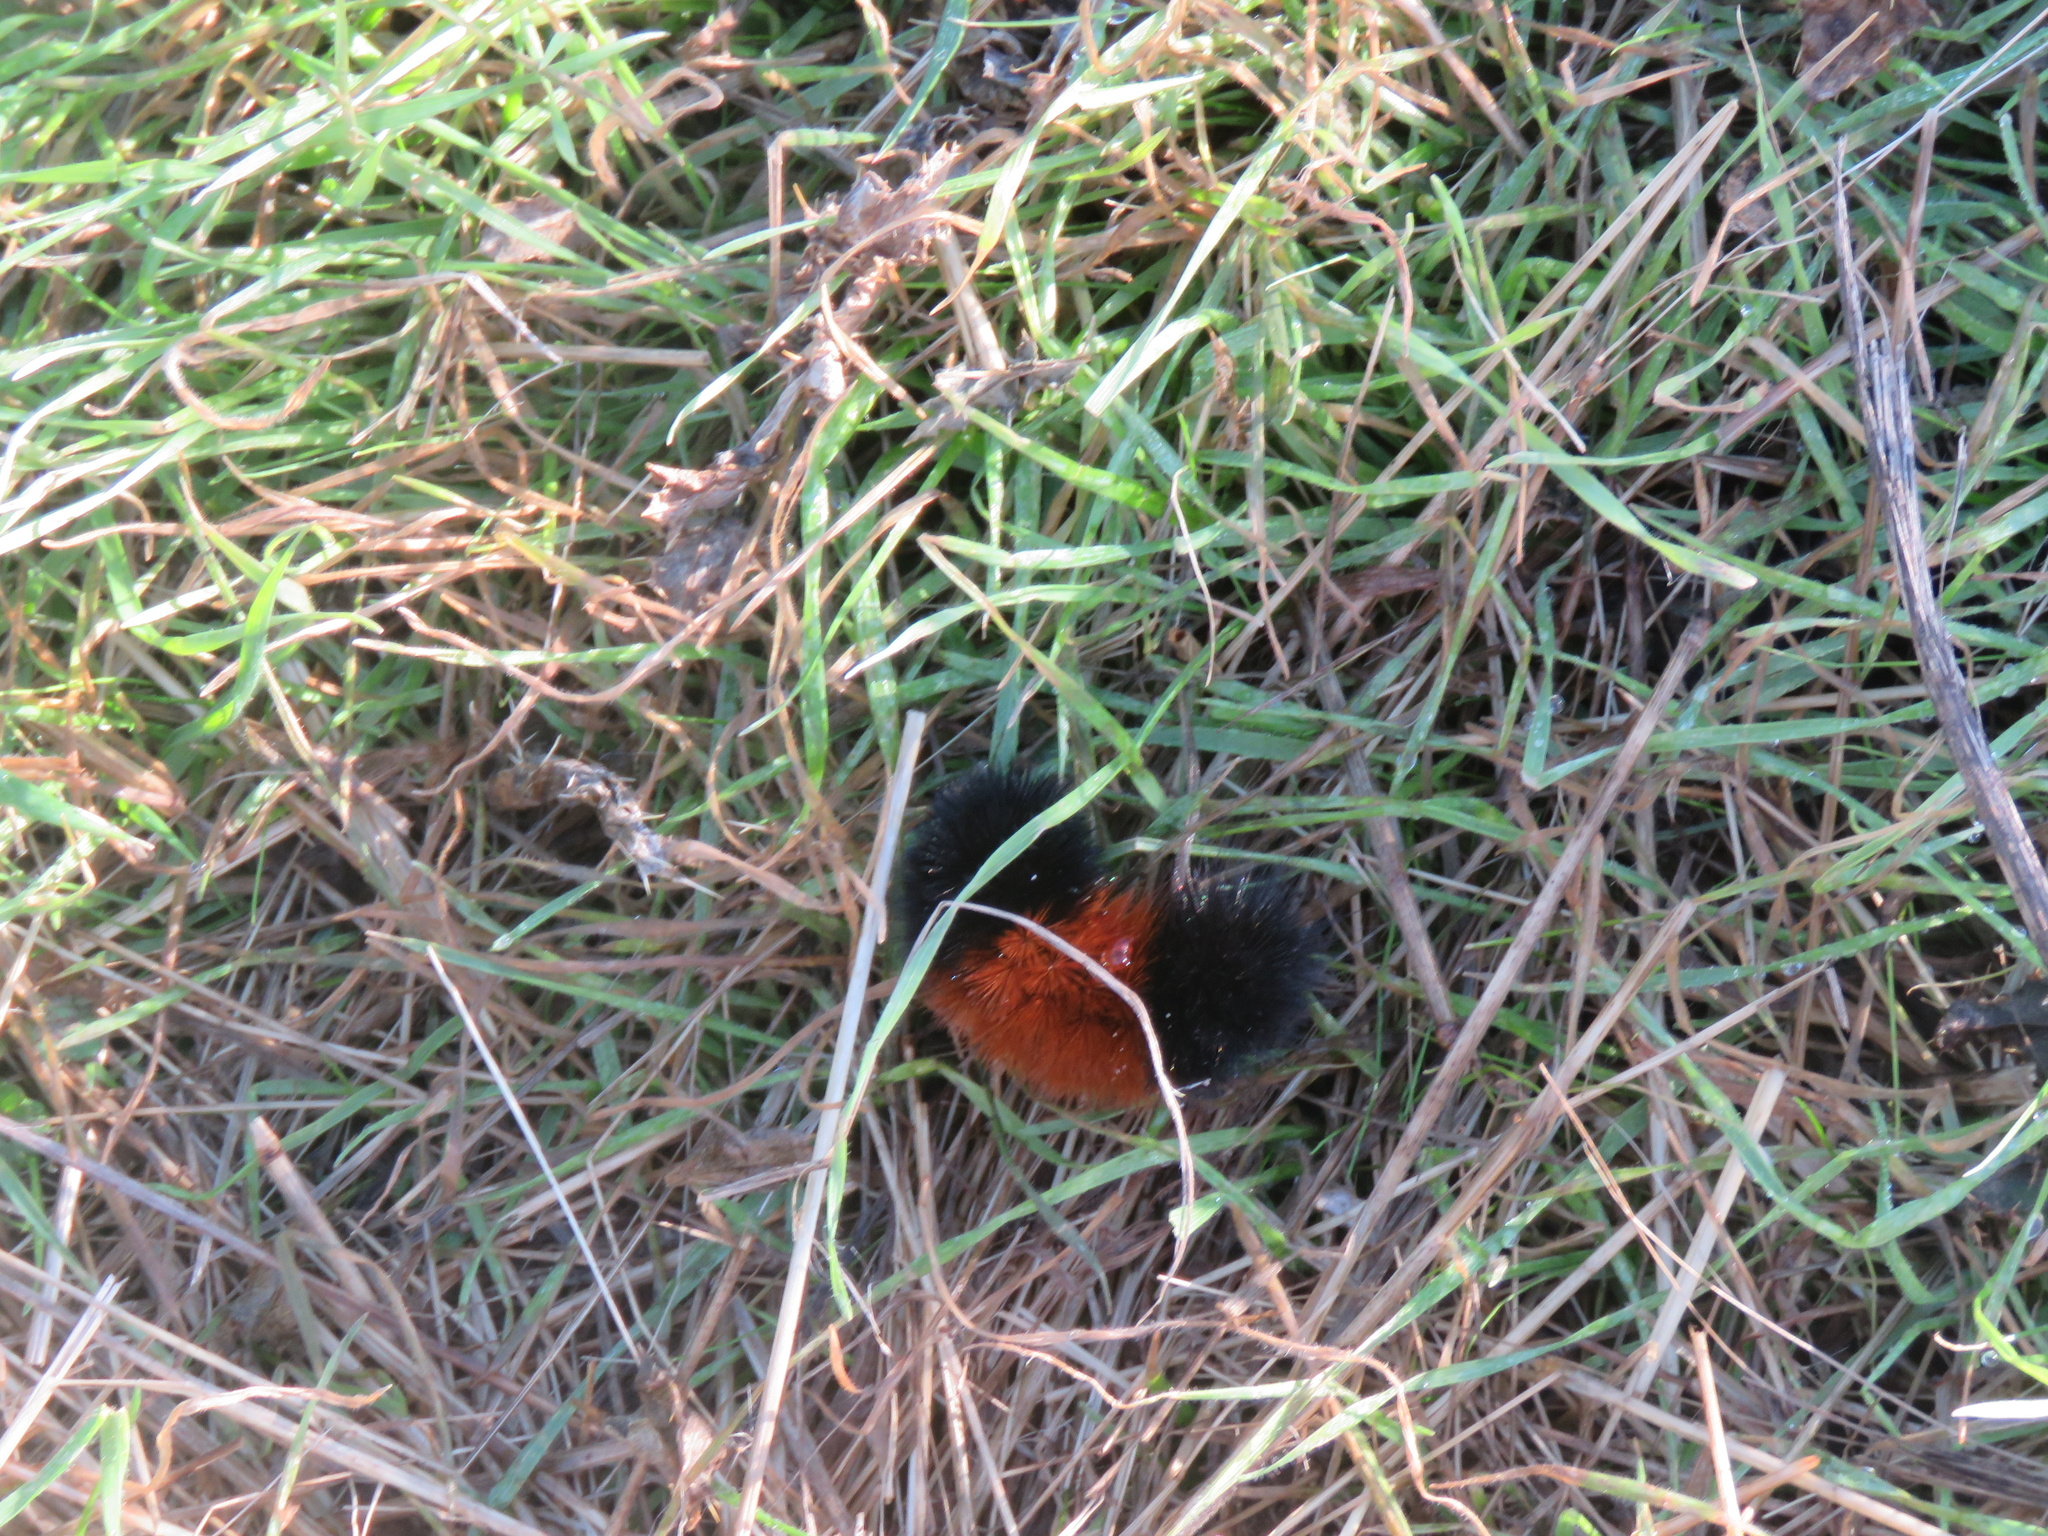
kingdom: Animalia
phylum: Arthropoda
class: Insecta
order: Lepidoptera
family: Erebidae
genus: Pyrrharctia
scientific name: Pyrrharctia isabella
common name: Isabella tiger moth
